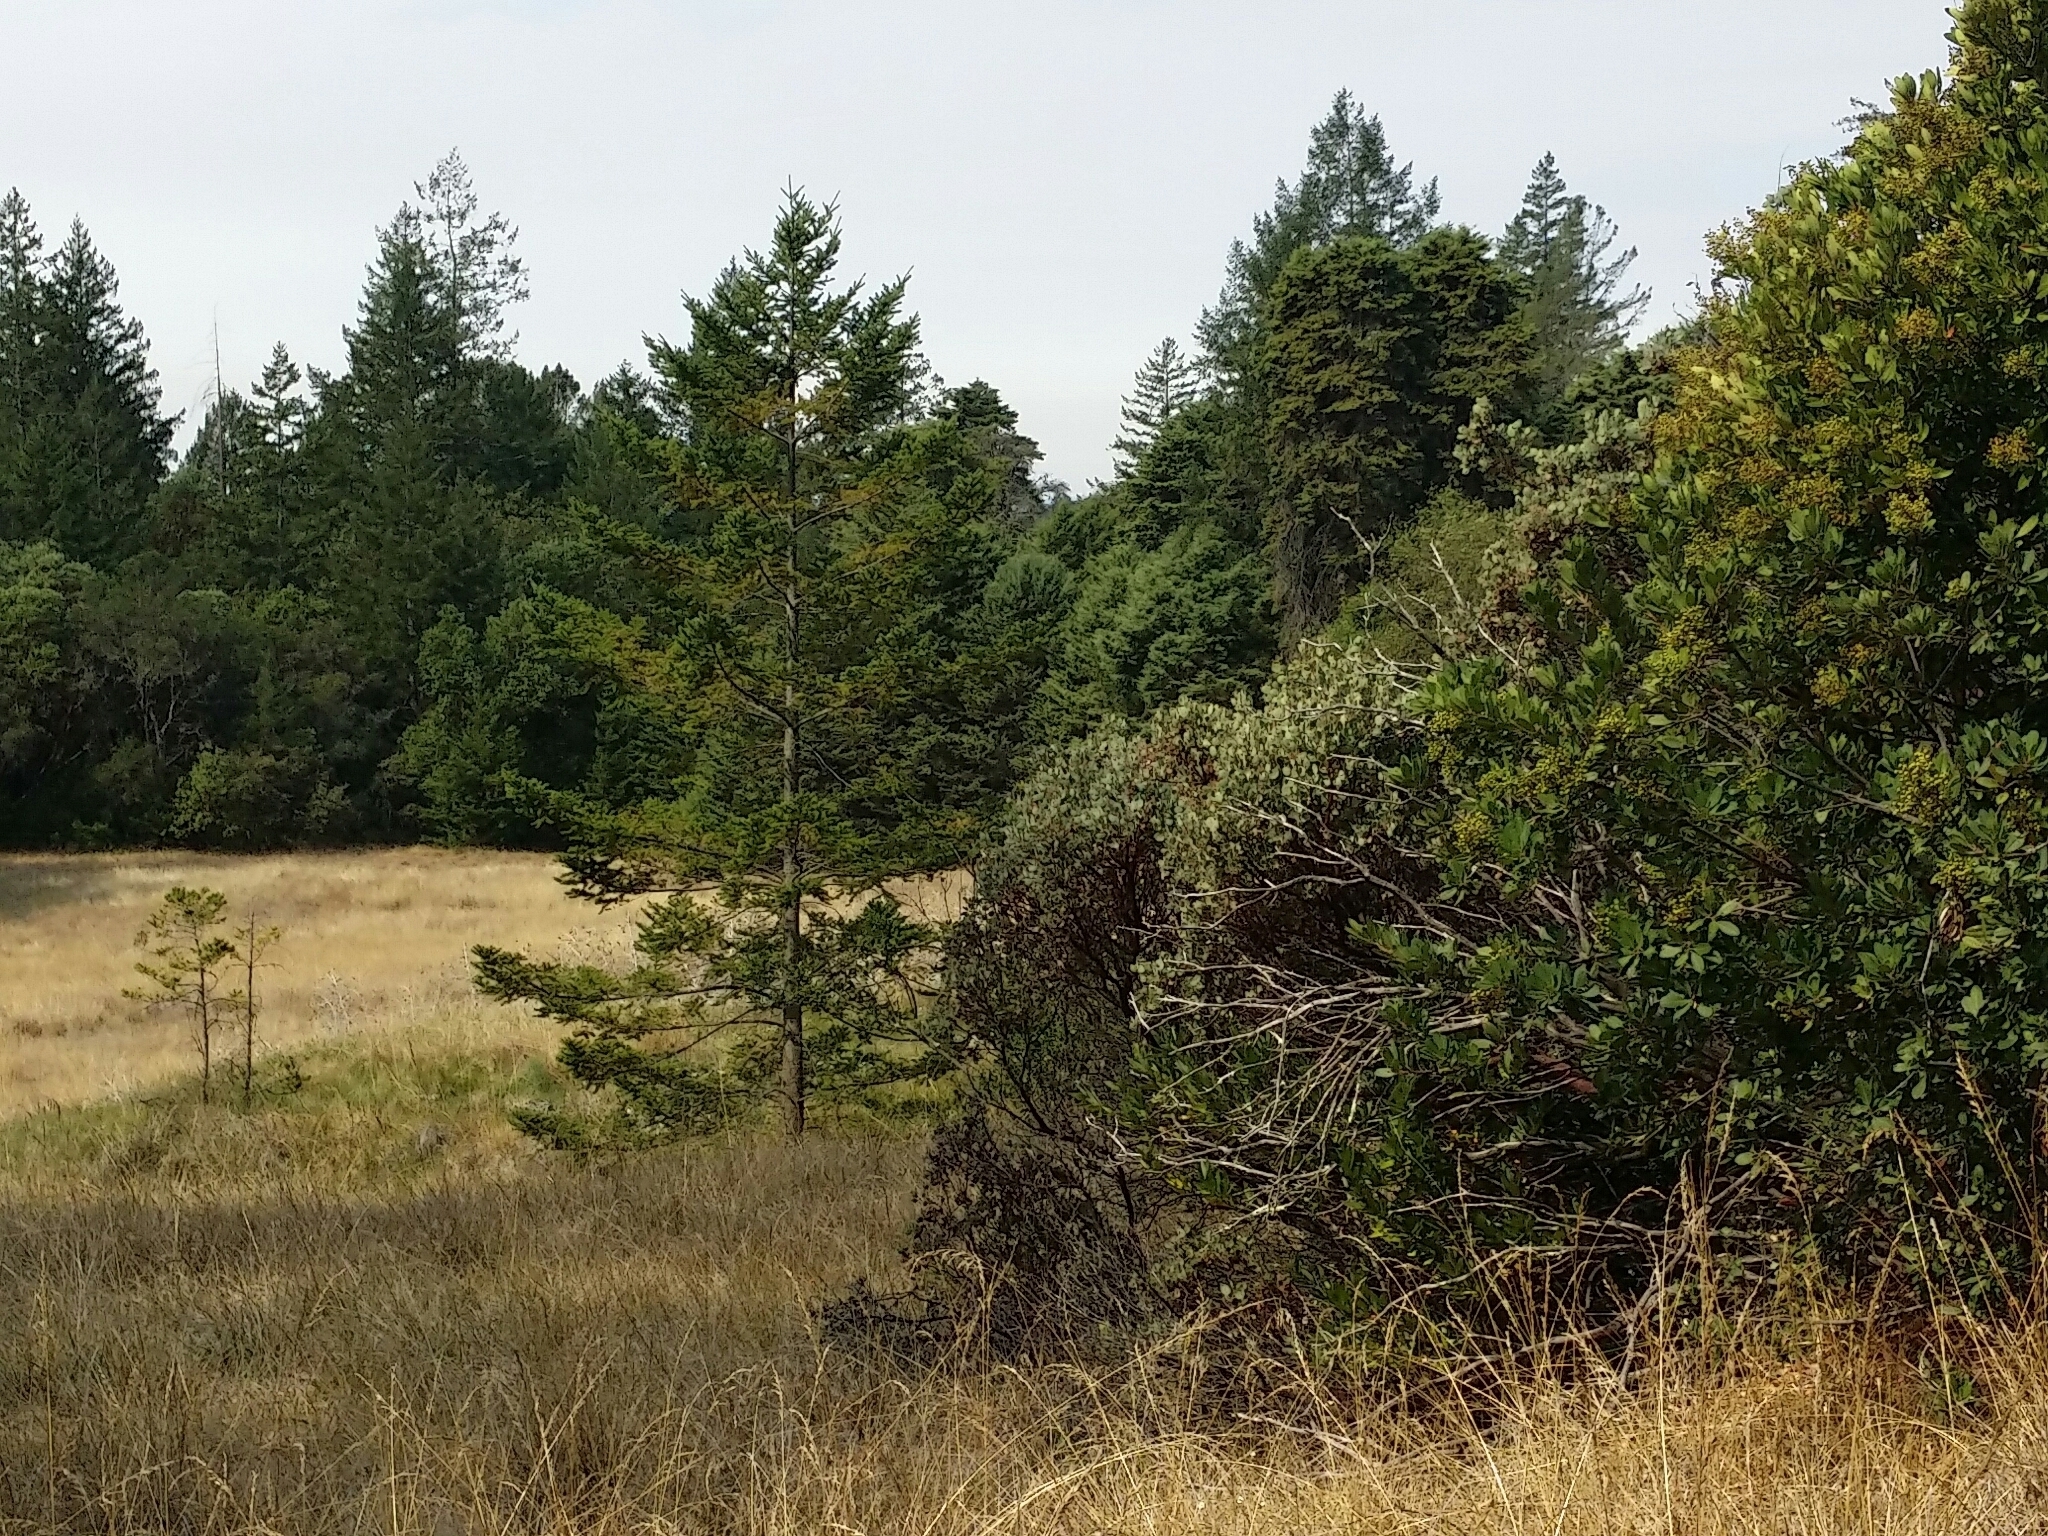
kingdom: Plantae
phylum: Tracheophyta
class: Magnoliopsida
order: Rosales
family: Rosaceae
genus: Heteromeles
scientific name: Heteromeles arbutifolia
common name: California-holly
